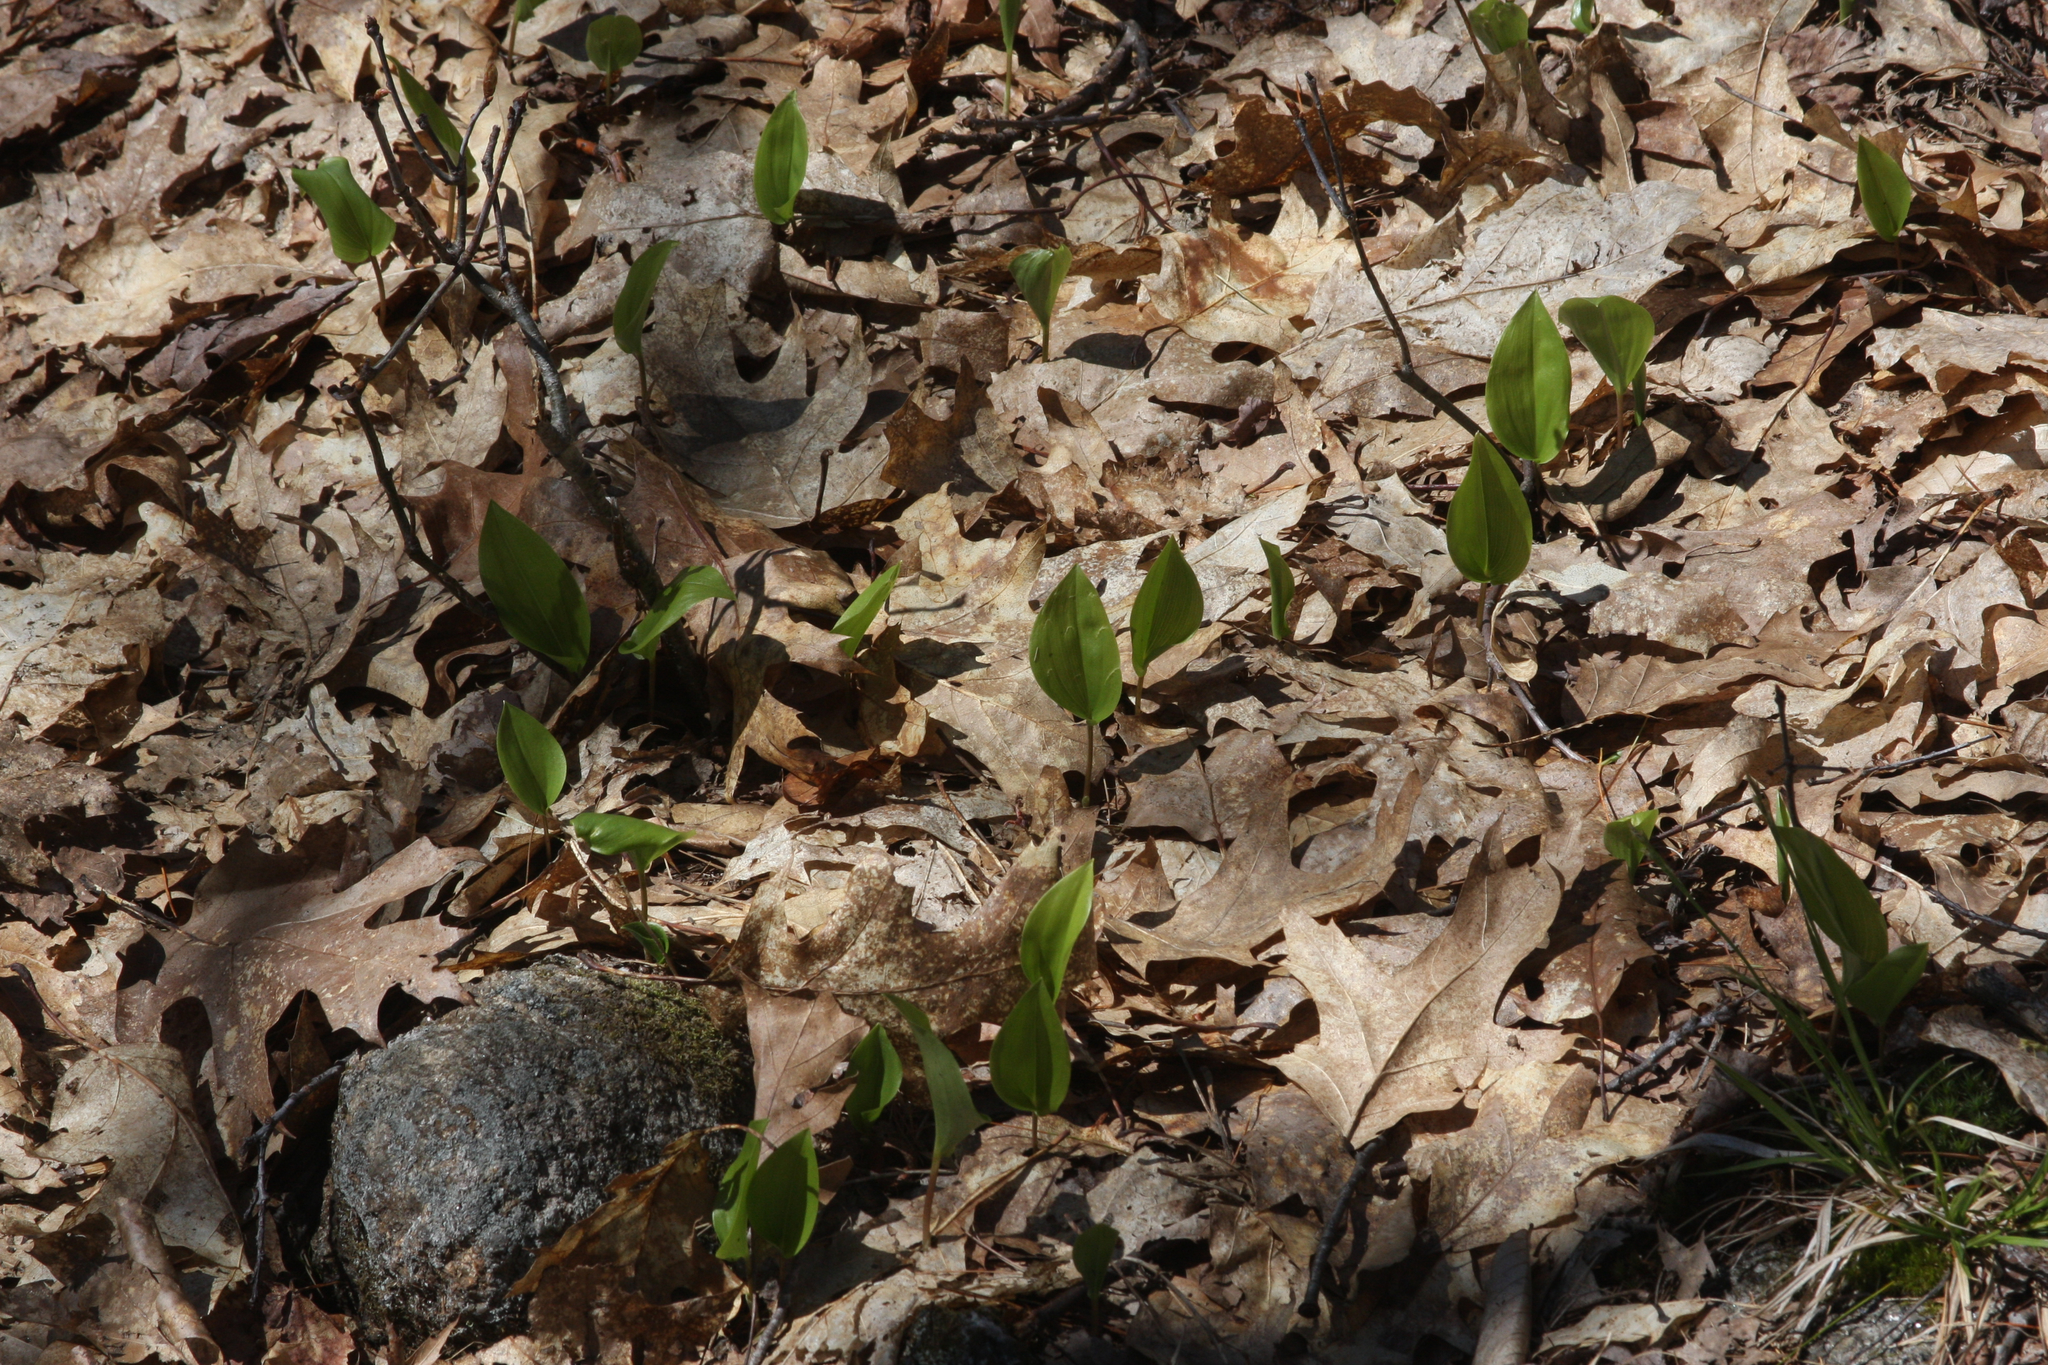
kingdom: Plantae
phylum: Tracheophyta
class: Liliopsida
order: Asparagales
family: Asparagaceae
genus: Maianthemum
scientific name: Maianthemum canadense
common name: False lily-of-the-valley
